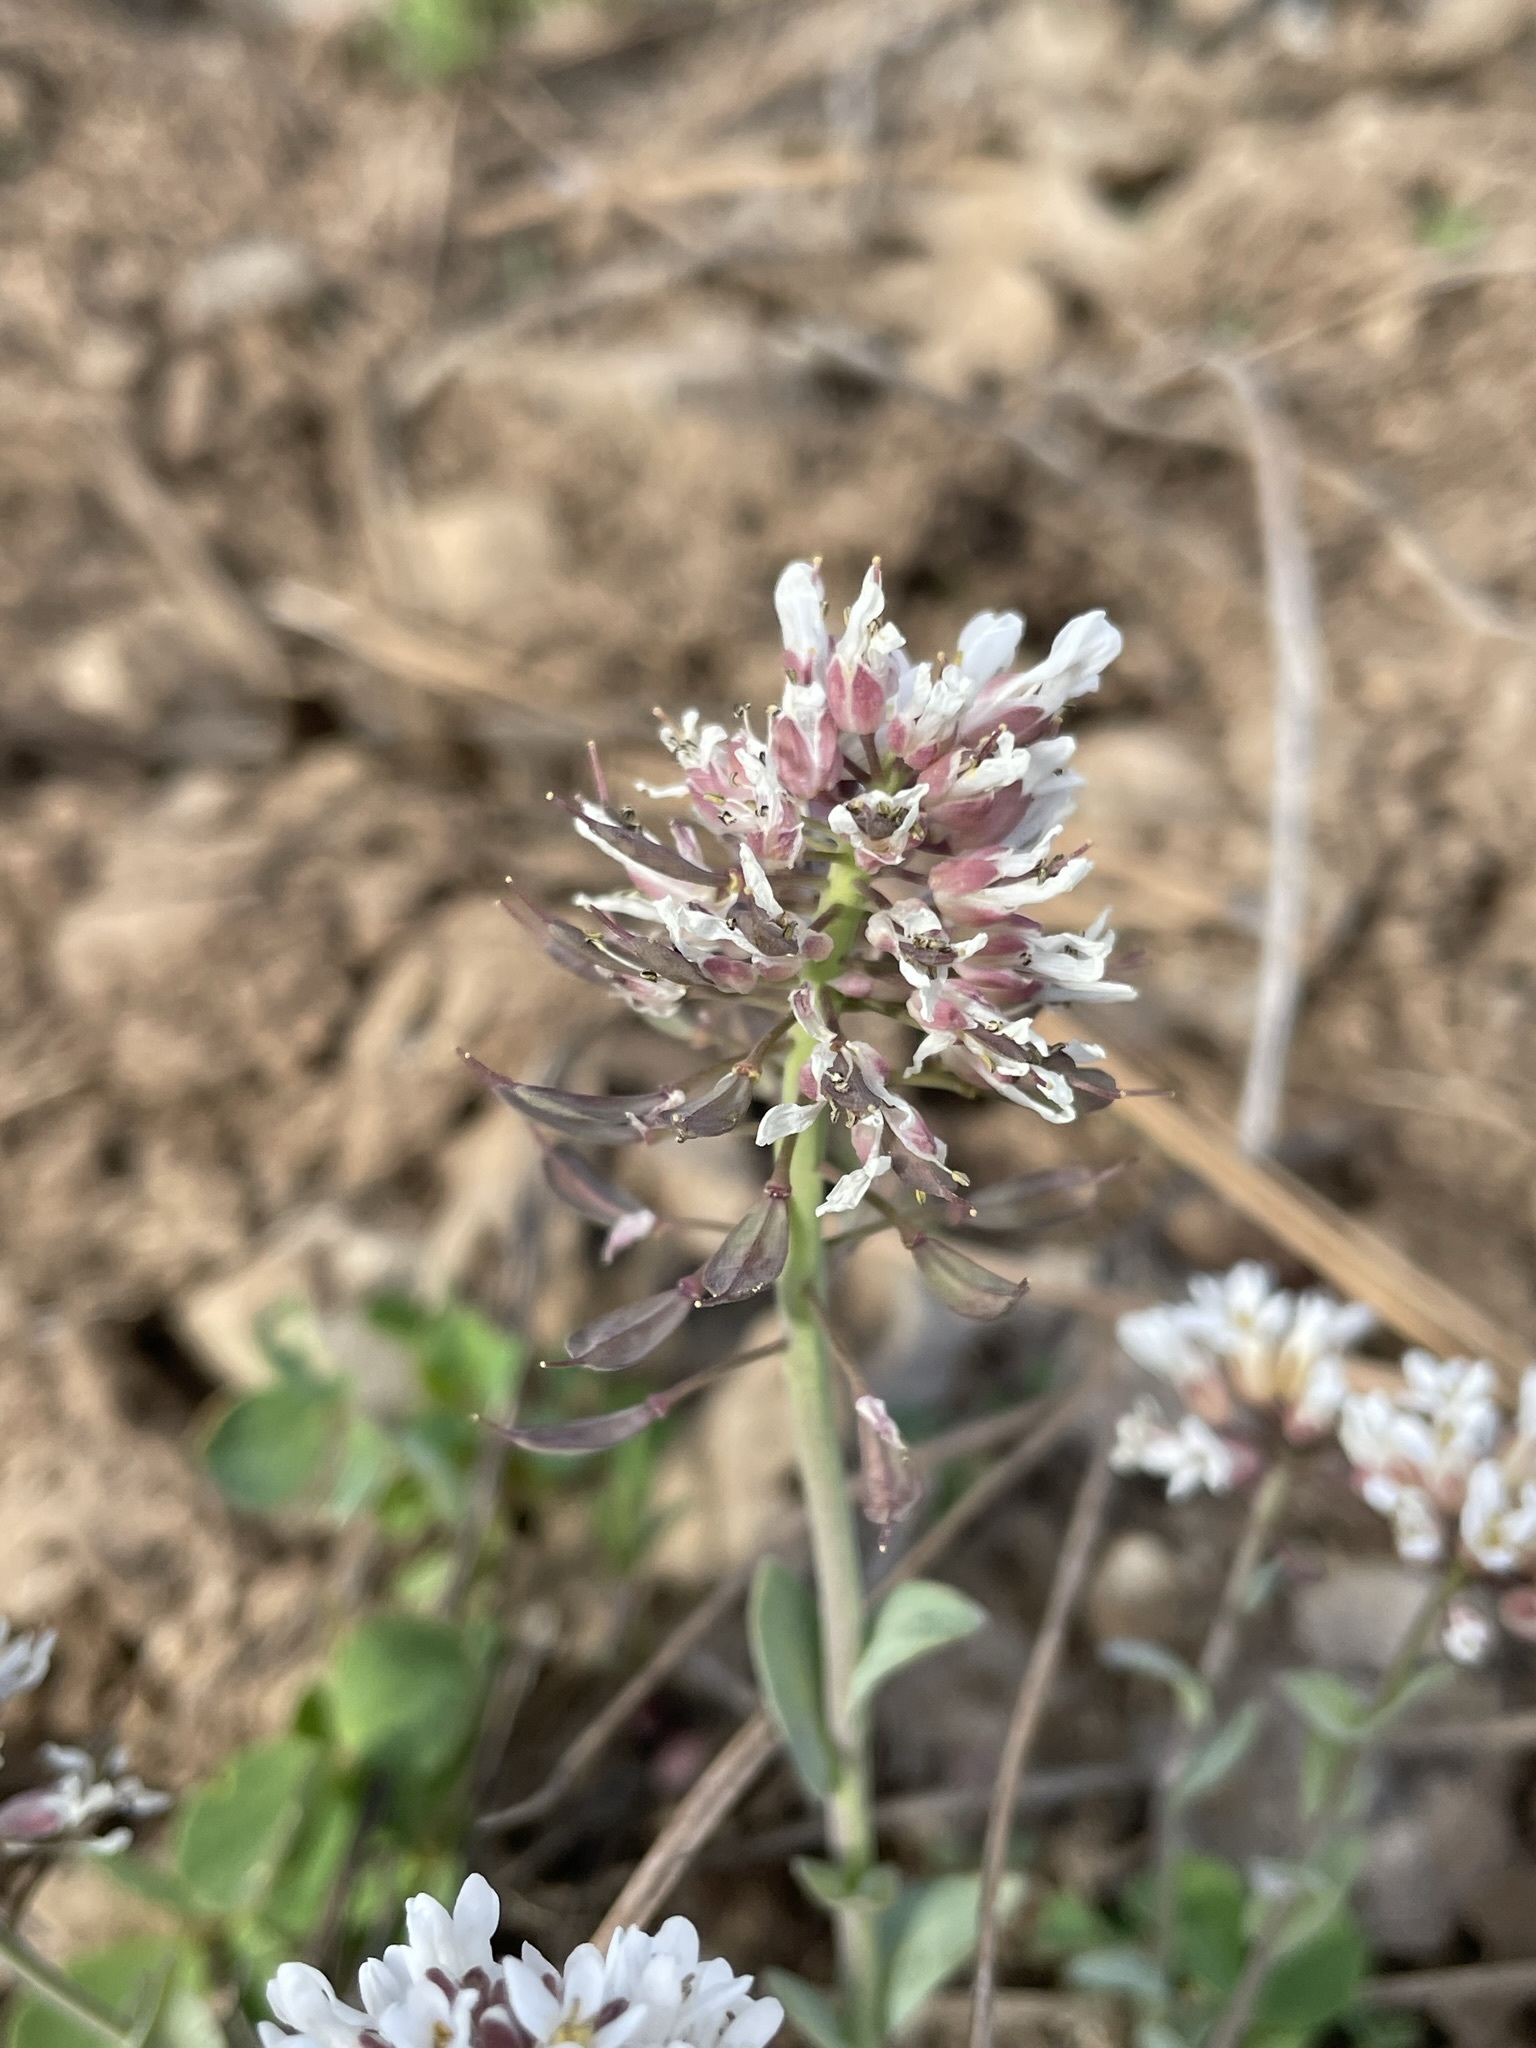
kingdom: Plantae
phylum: Tracheophyta
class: Magnoliopsida
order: Brassicales
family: Brassicaceae
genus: Noccaea
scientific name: Noccaea fendleri
